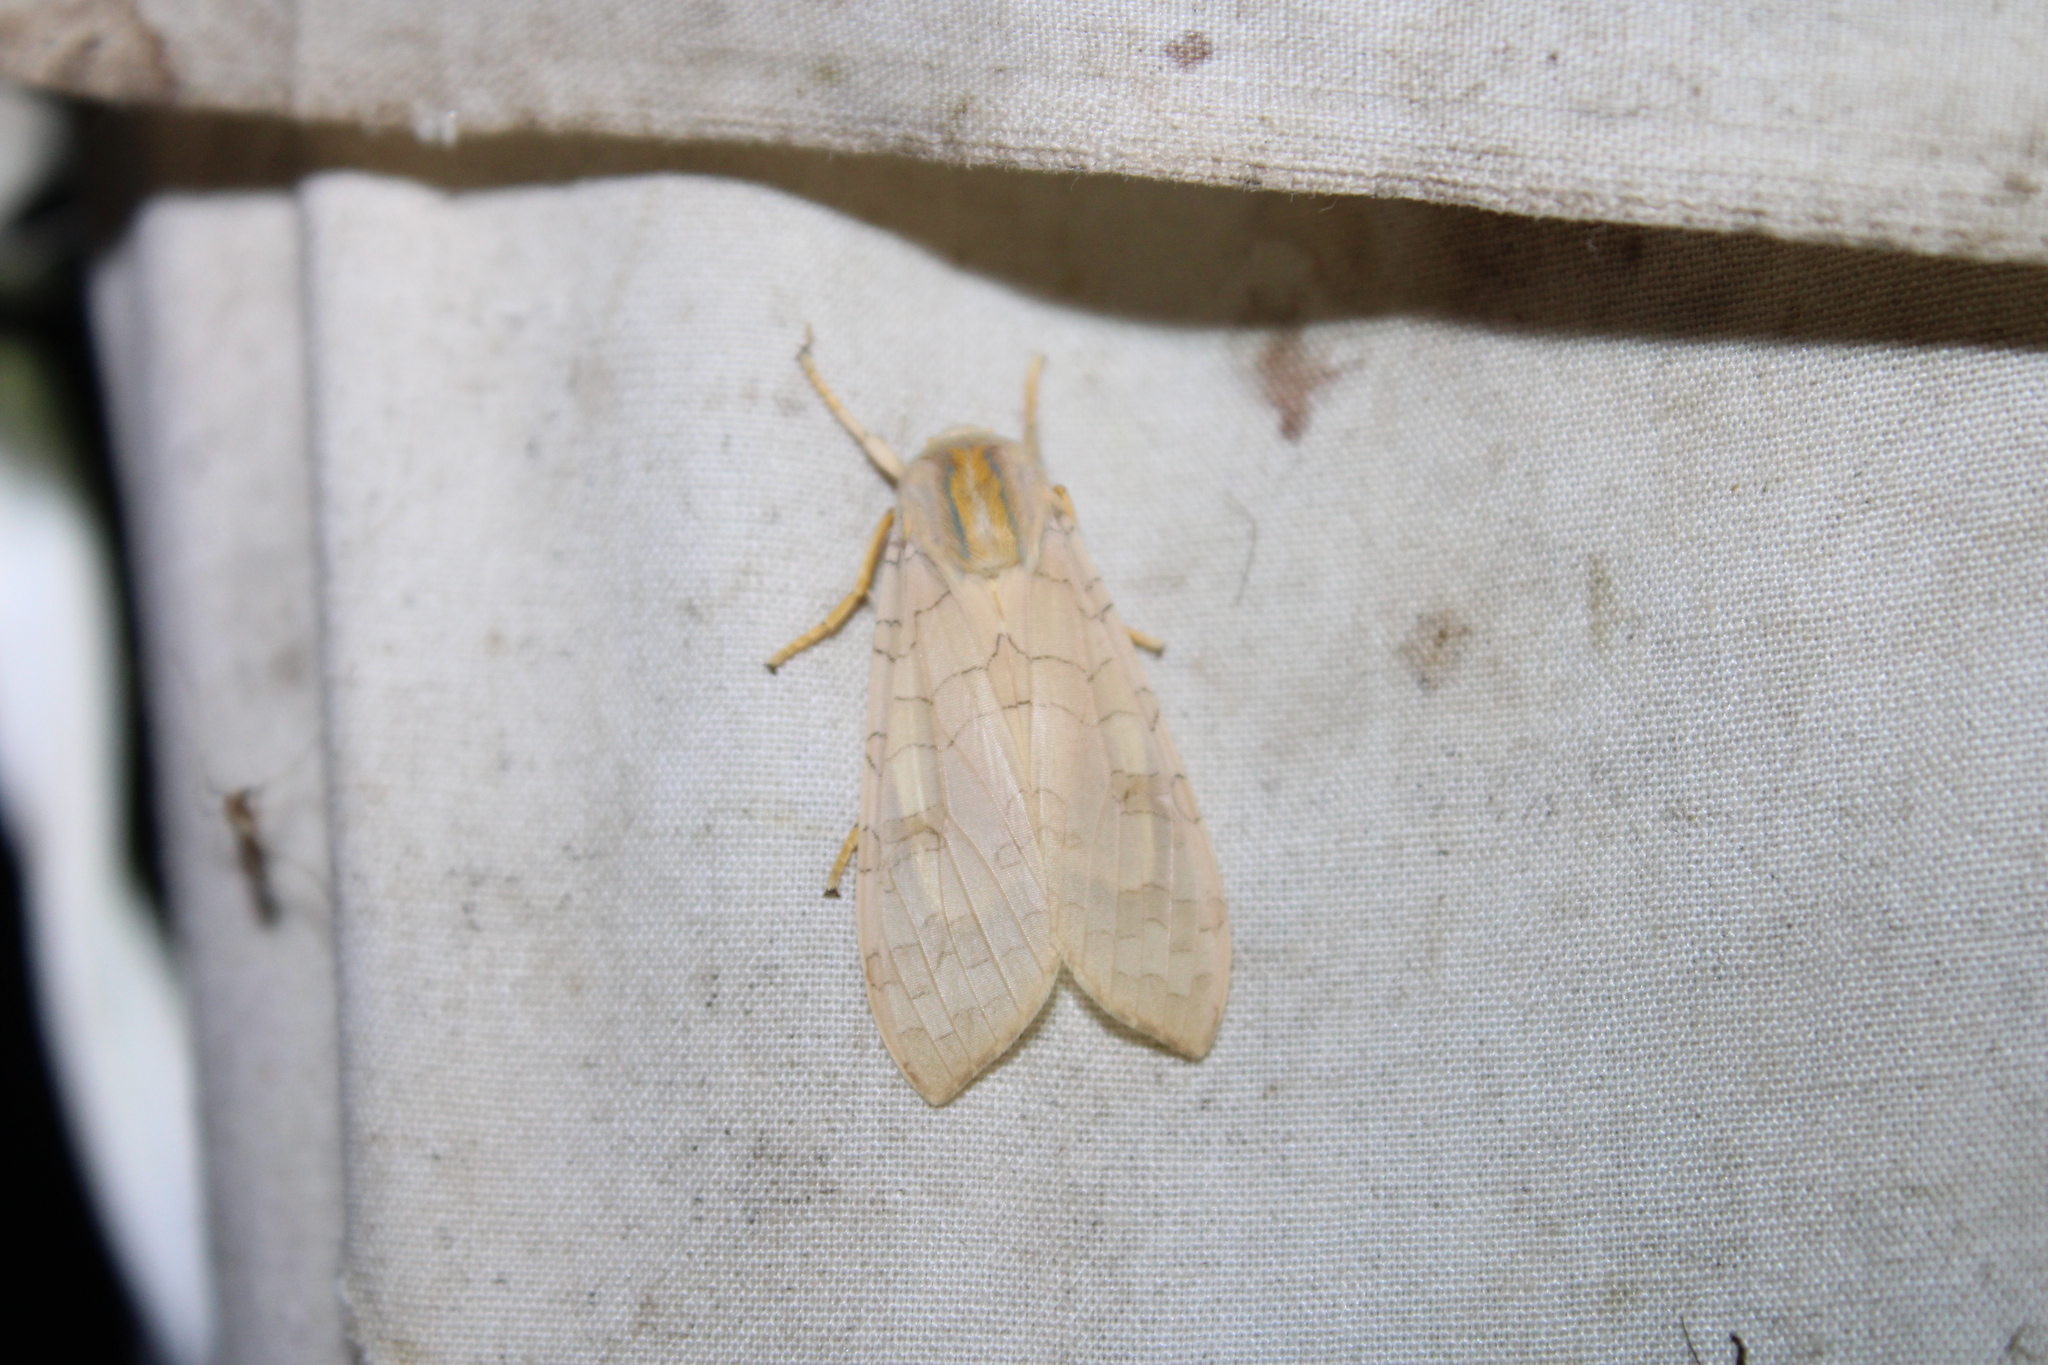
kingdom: Animalia
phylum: Arthropoda
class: Insecta
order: Lepidoptera
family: Erebidae
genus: Halysidota
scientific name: Halysidota
